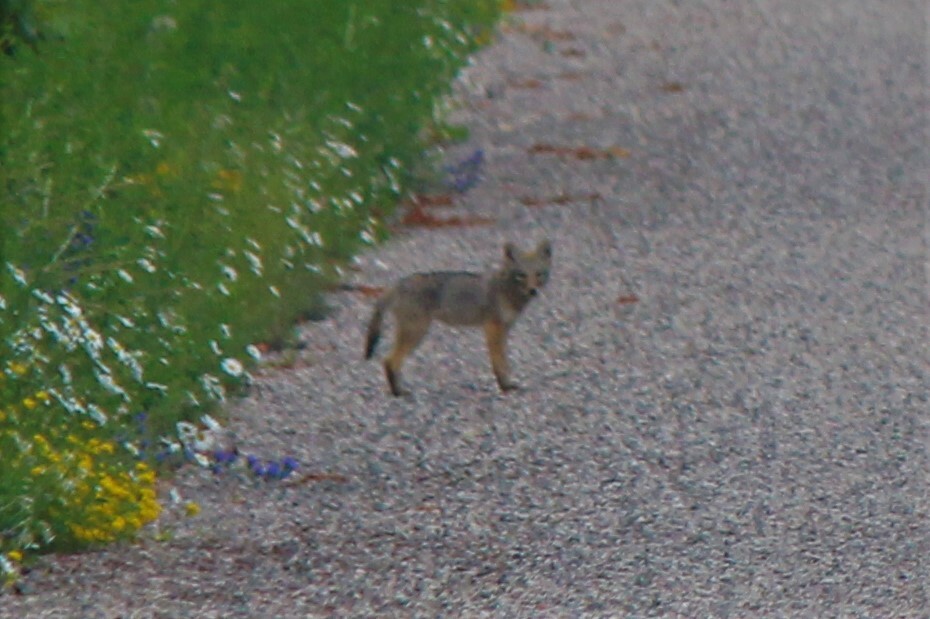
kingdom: Animalia
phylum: Chordata
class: Mammalia
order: Carnivora
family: Canidae
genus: Vulpes
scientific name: Vulpes vulpes
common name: Red fox
